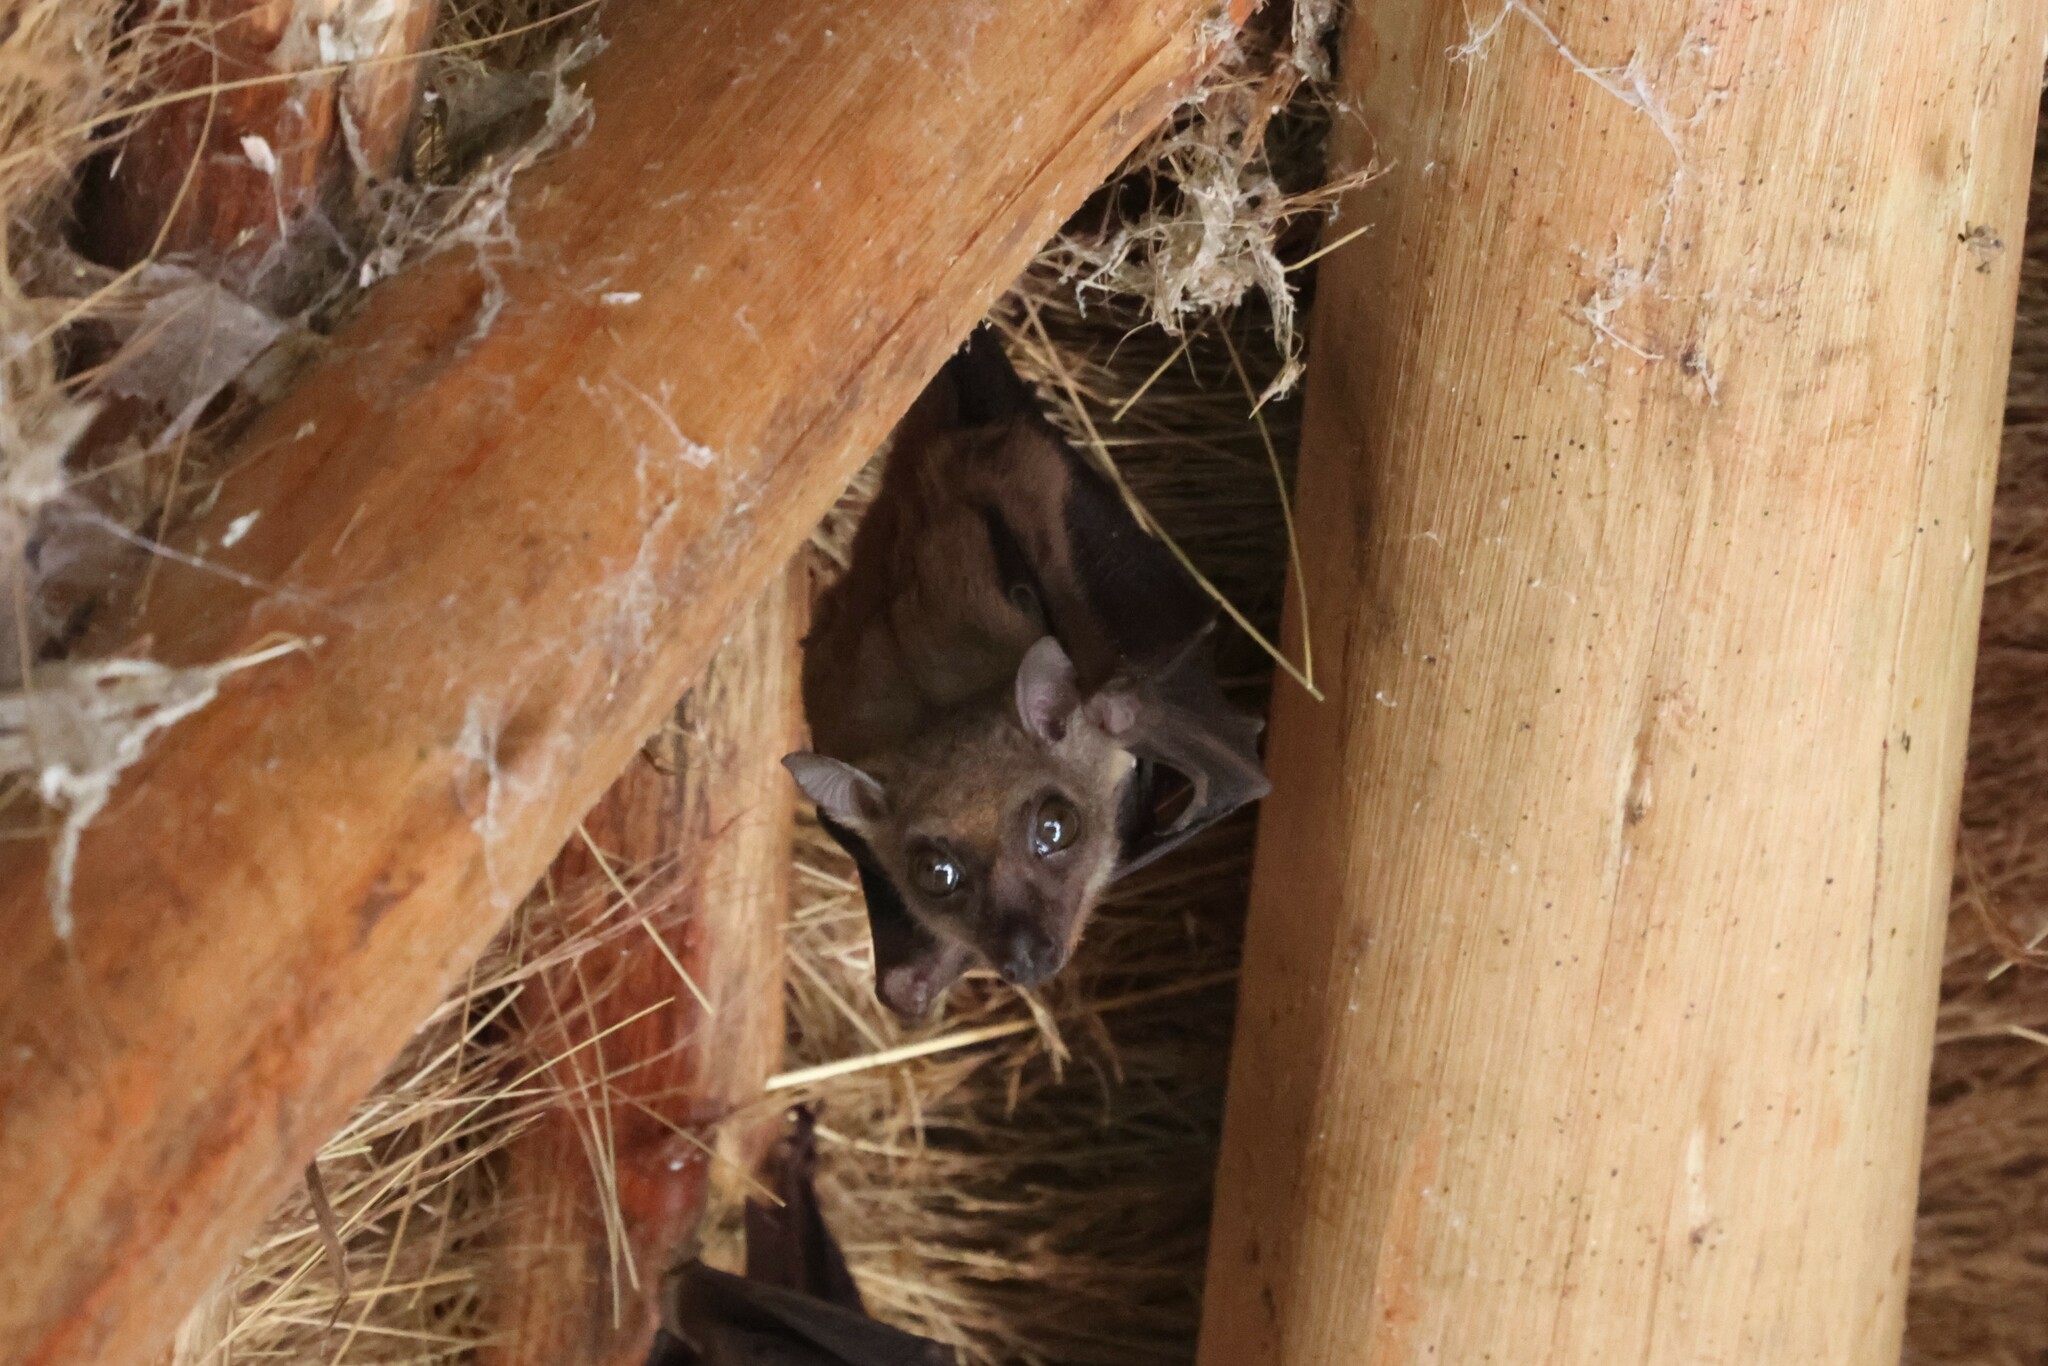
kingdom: Animalia
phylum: Chordata
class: Mammalia
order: Chiroptera
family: Pteropodidae
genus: Myonycteris
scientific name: Myonycteris angolensis
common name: Angolan rousette
